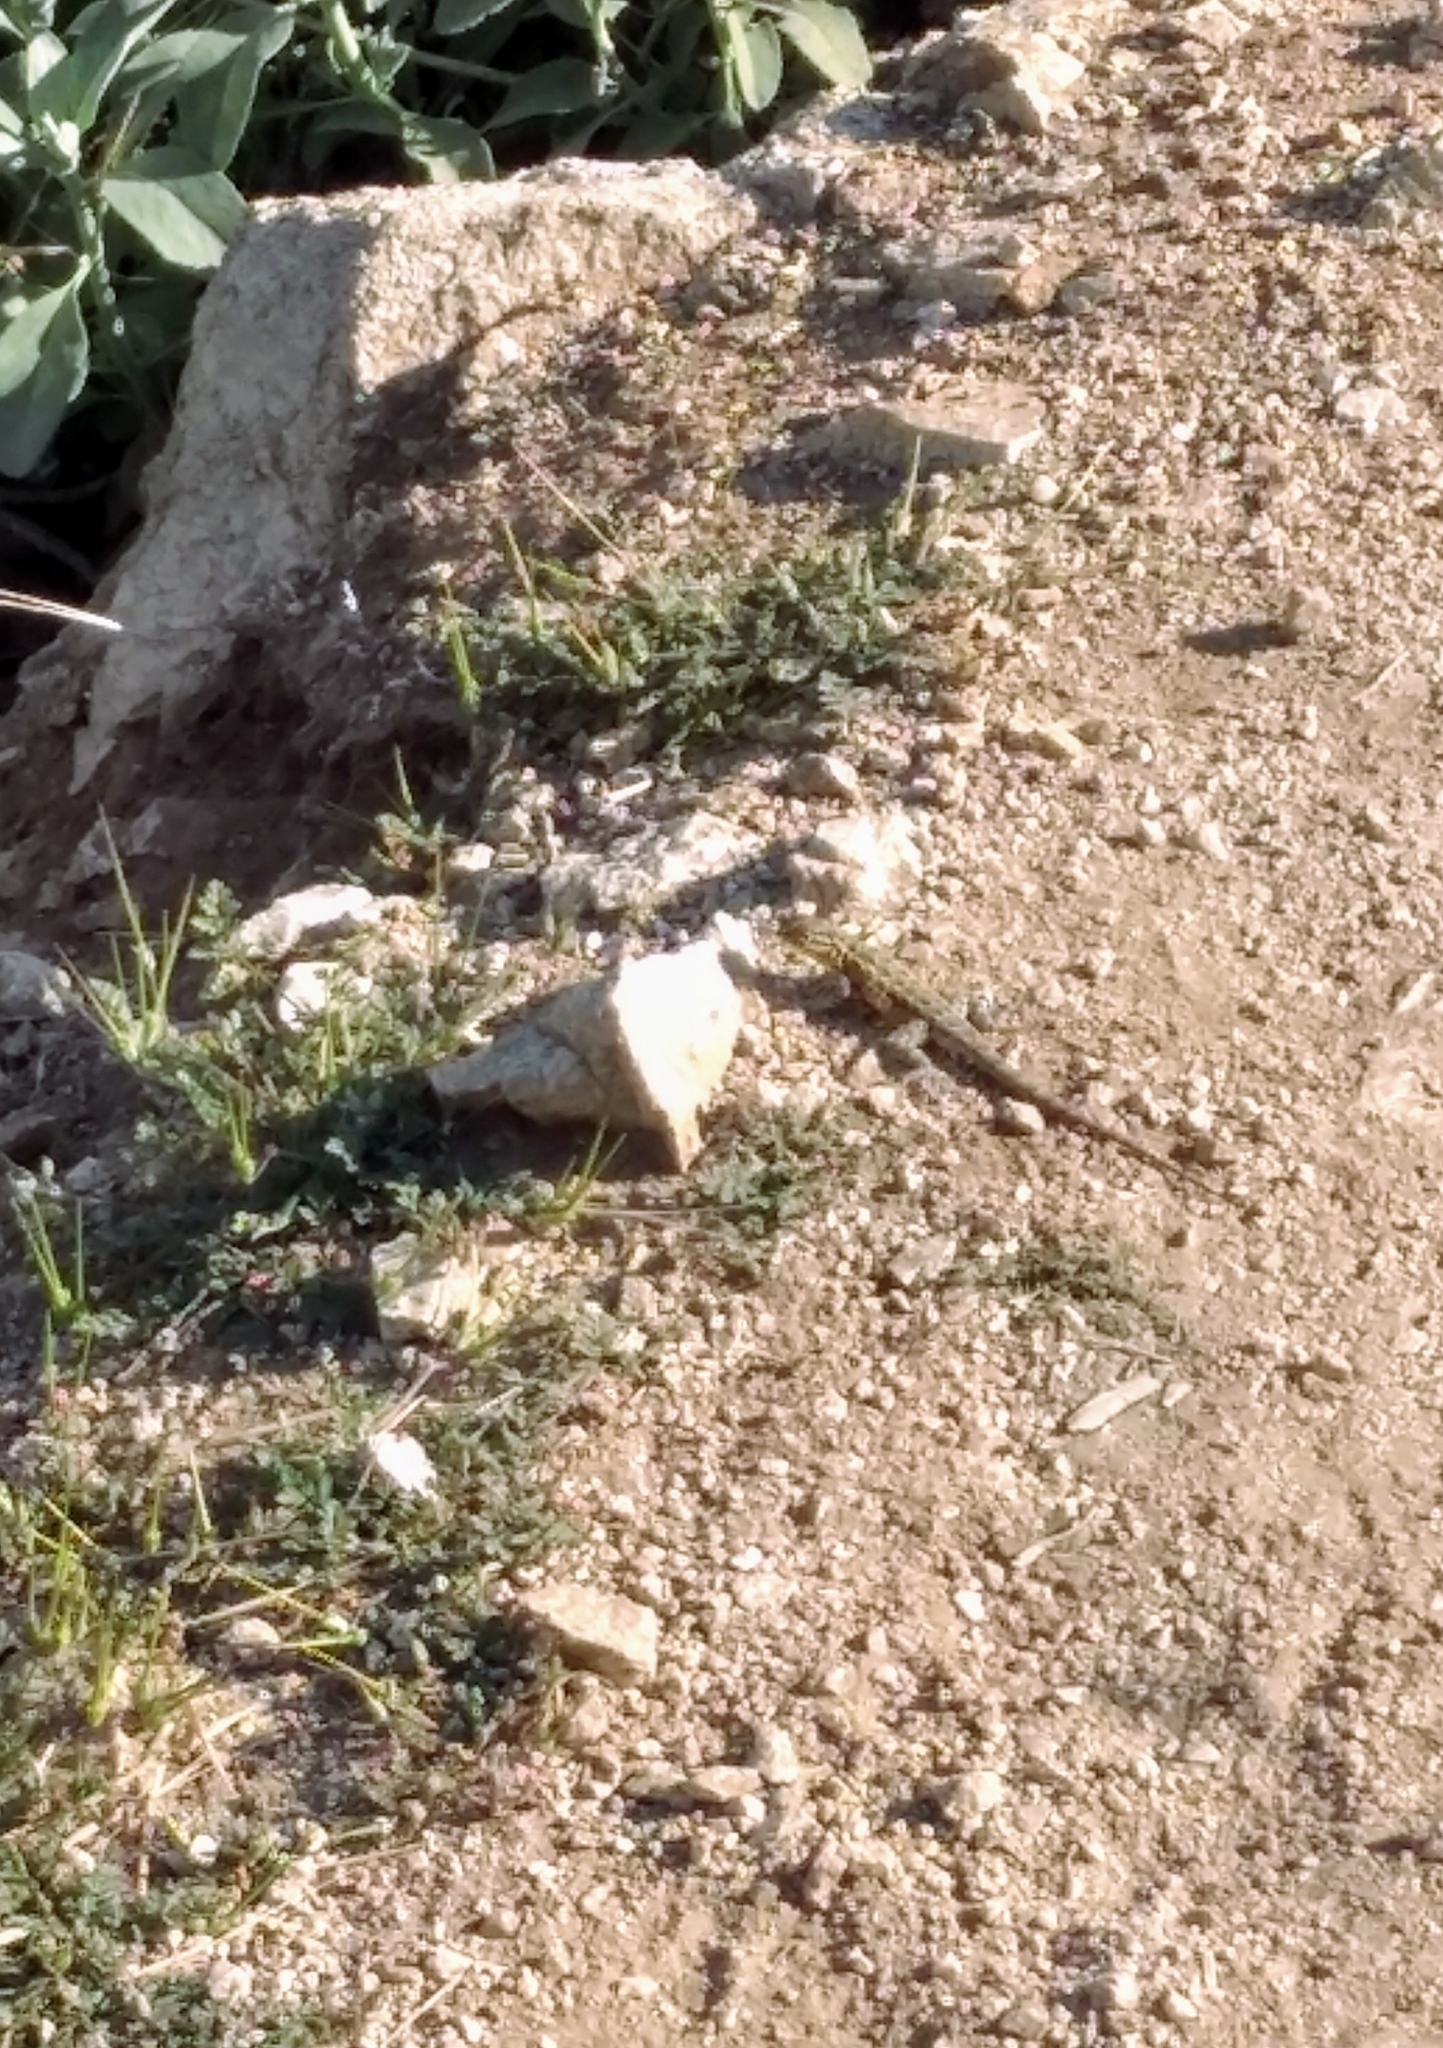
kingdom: Animalia
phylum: Chordata
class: Squamata
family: Phrynosomatidae
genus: Uta
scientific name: Uta stansburiana
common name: Side-blotched lizard
